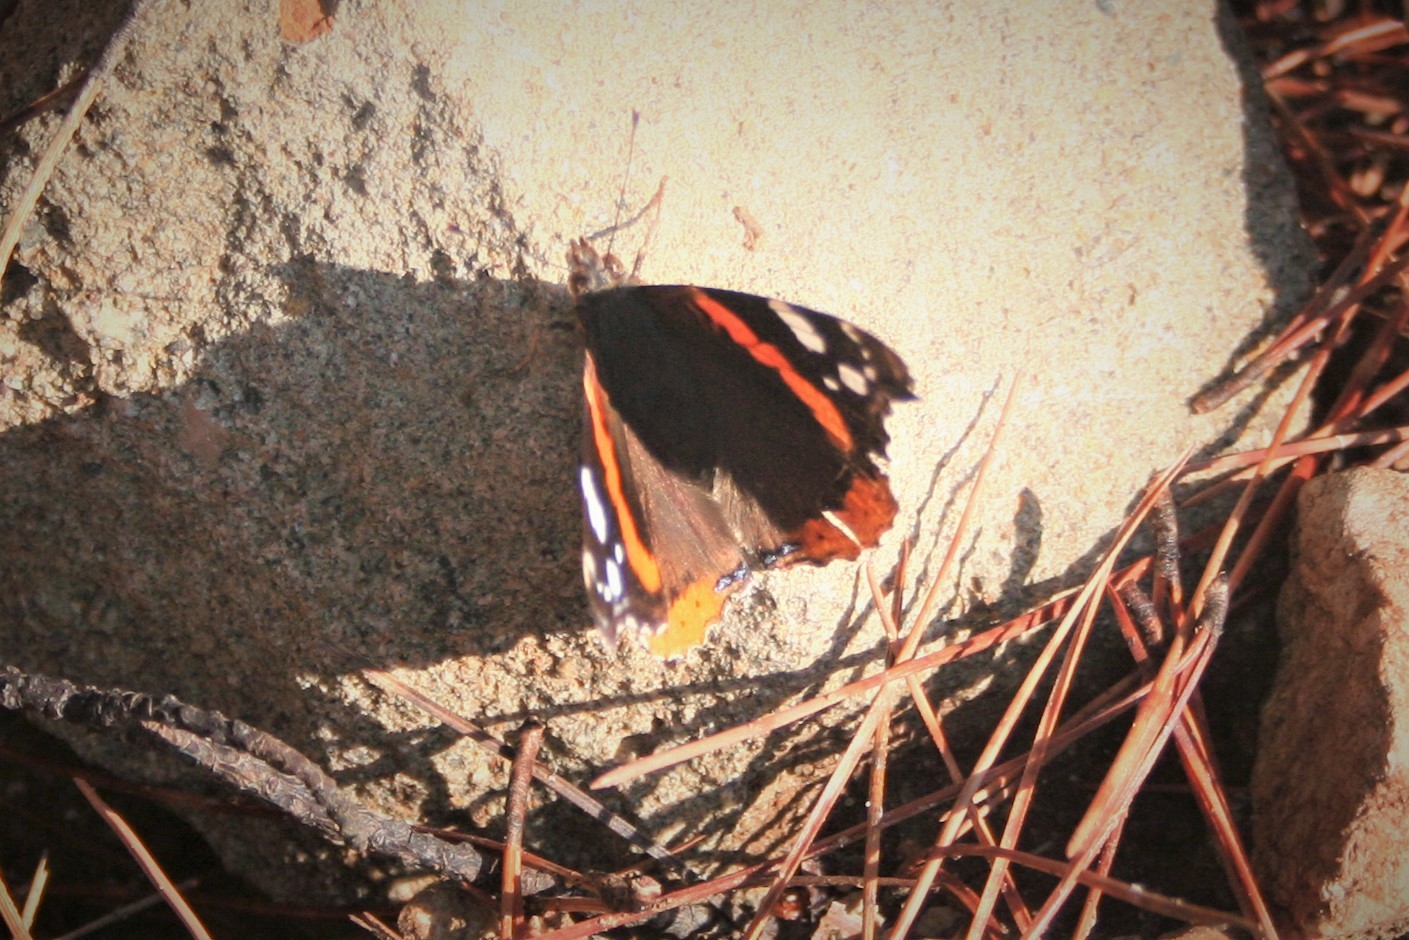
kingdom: Animalia
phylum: Arthropoda
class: Insecta
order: Lepidoptera
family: Nymphalidae
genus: Vanessa
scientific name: Vanessa atalanta
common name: Red admiral
